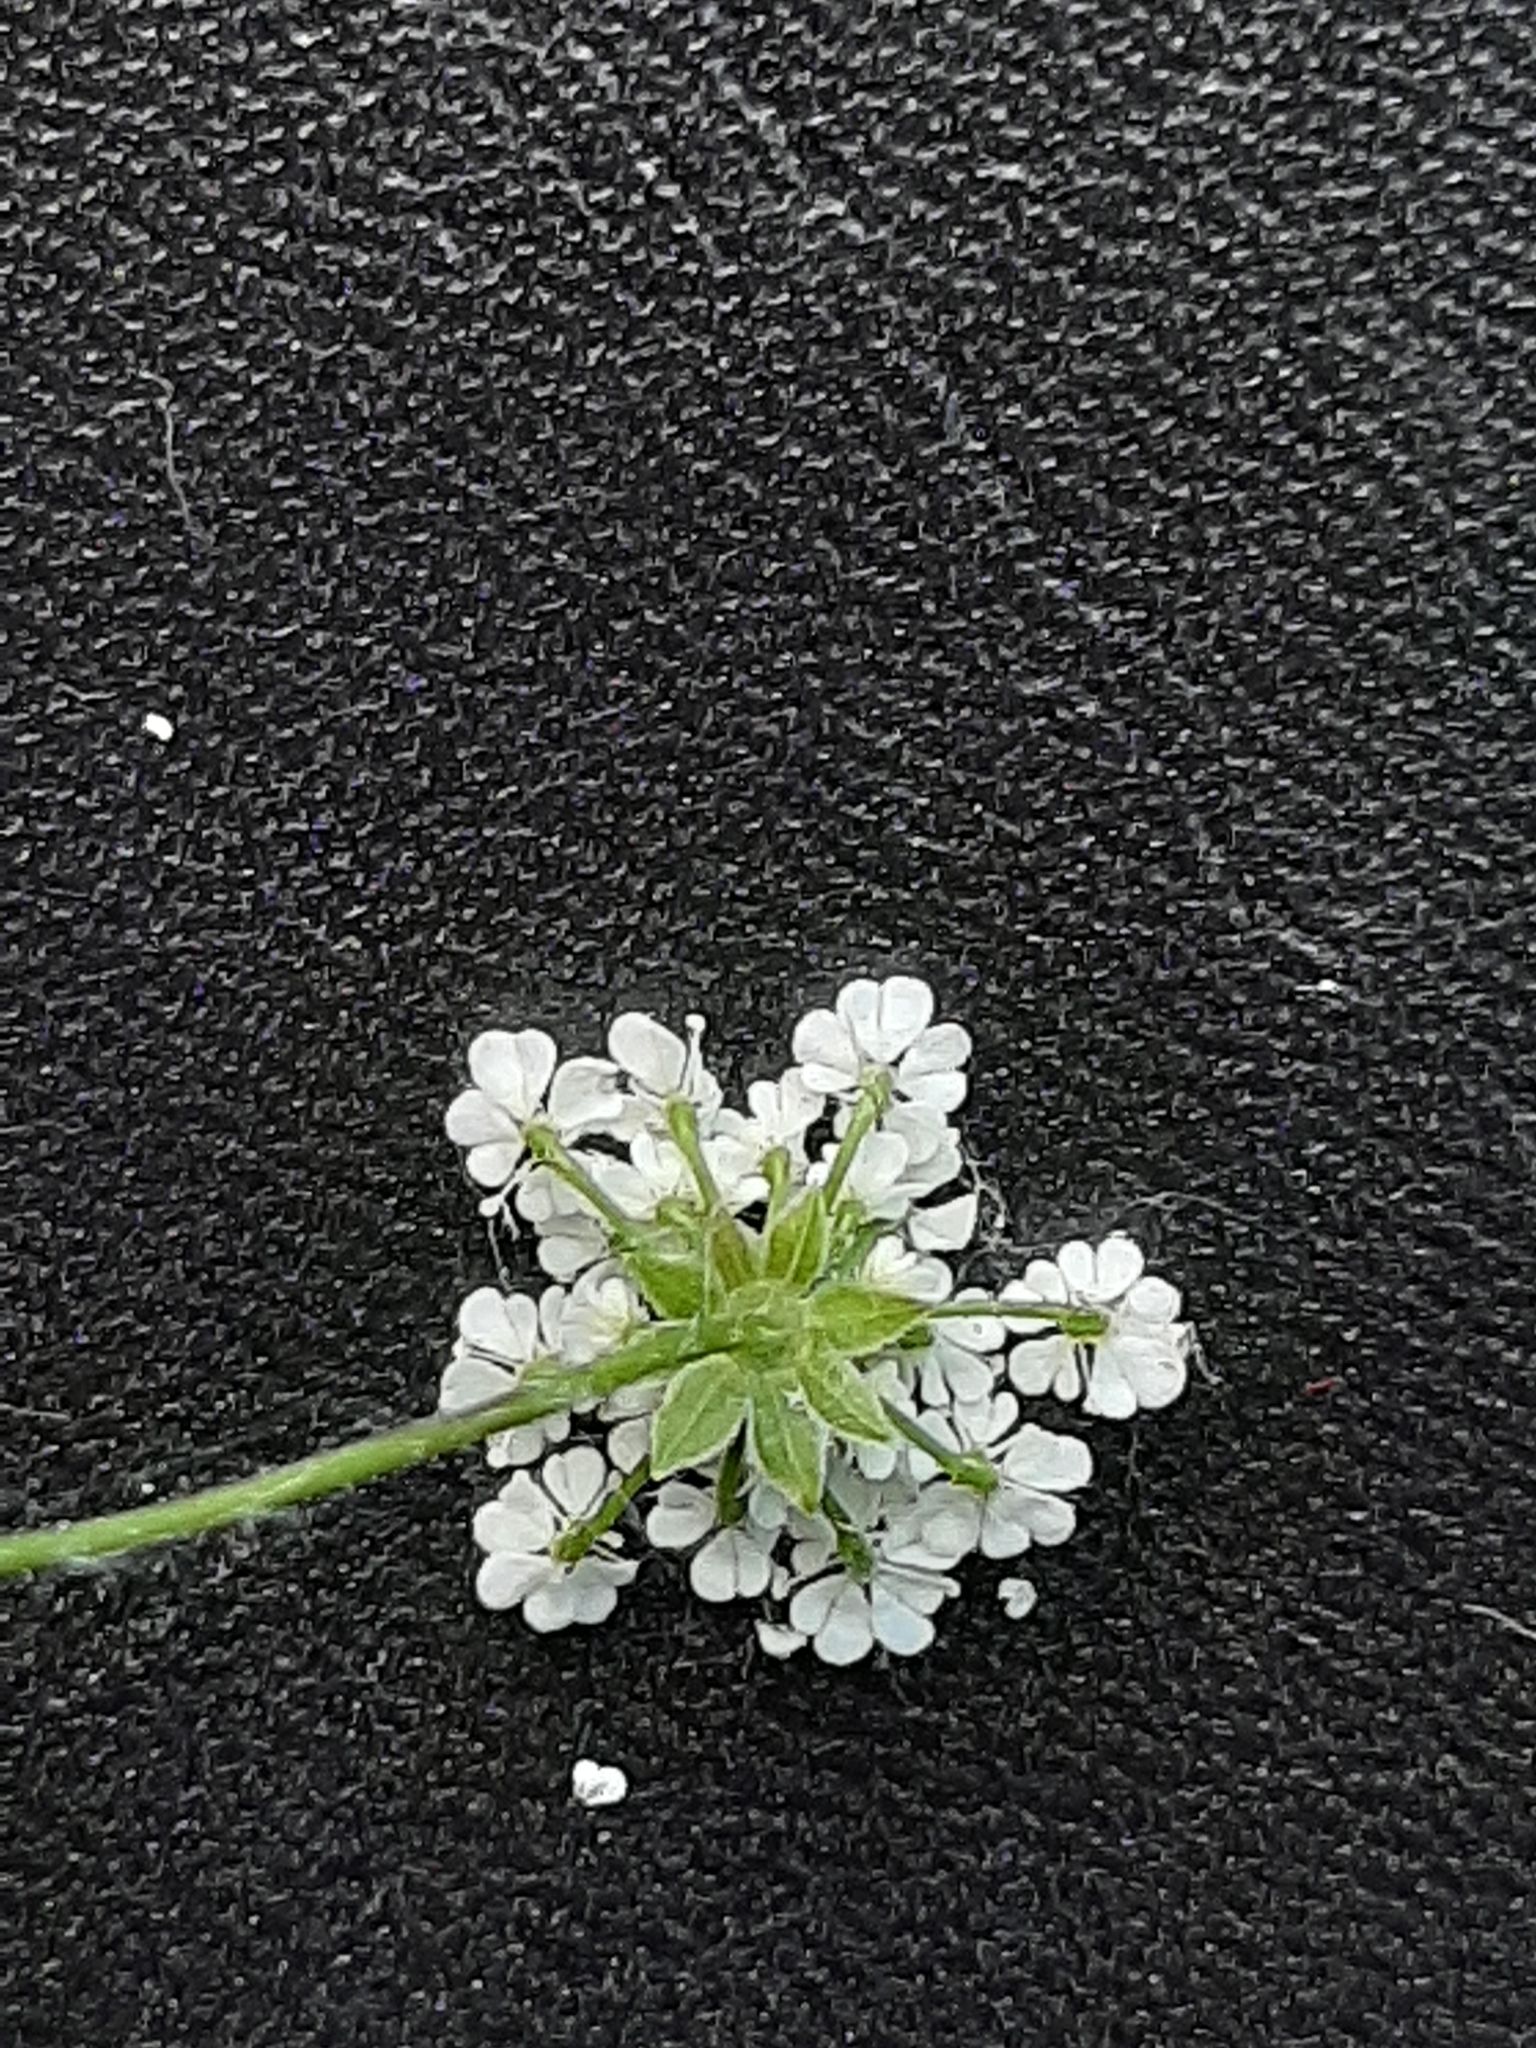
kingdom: Plantae
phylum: Tracheophyta
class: Magnoliopsida
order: Apiales
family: Apiaceae
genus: Chaerophyllum
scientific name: Chaerophyllum temulum
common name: Rough chervil
